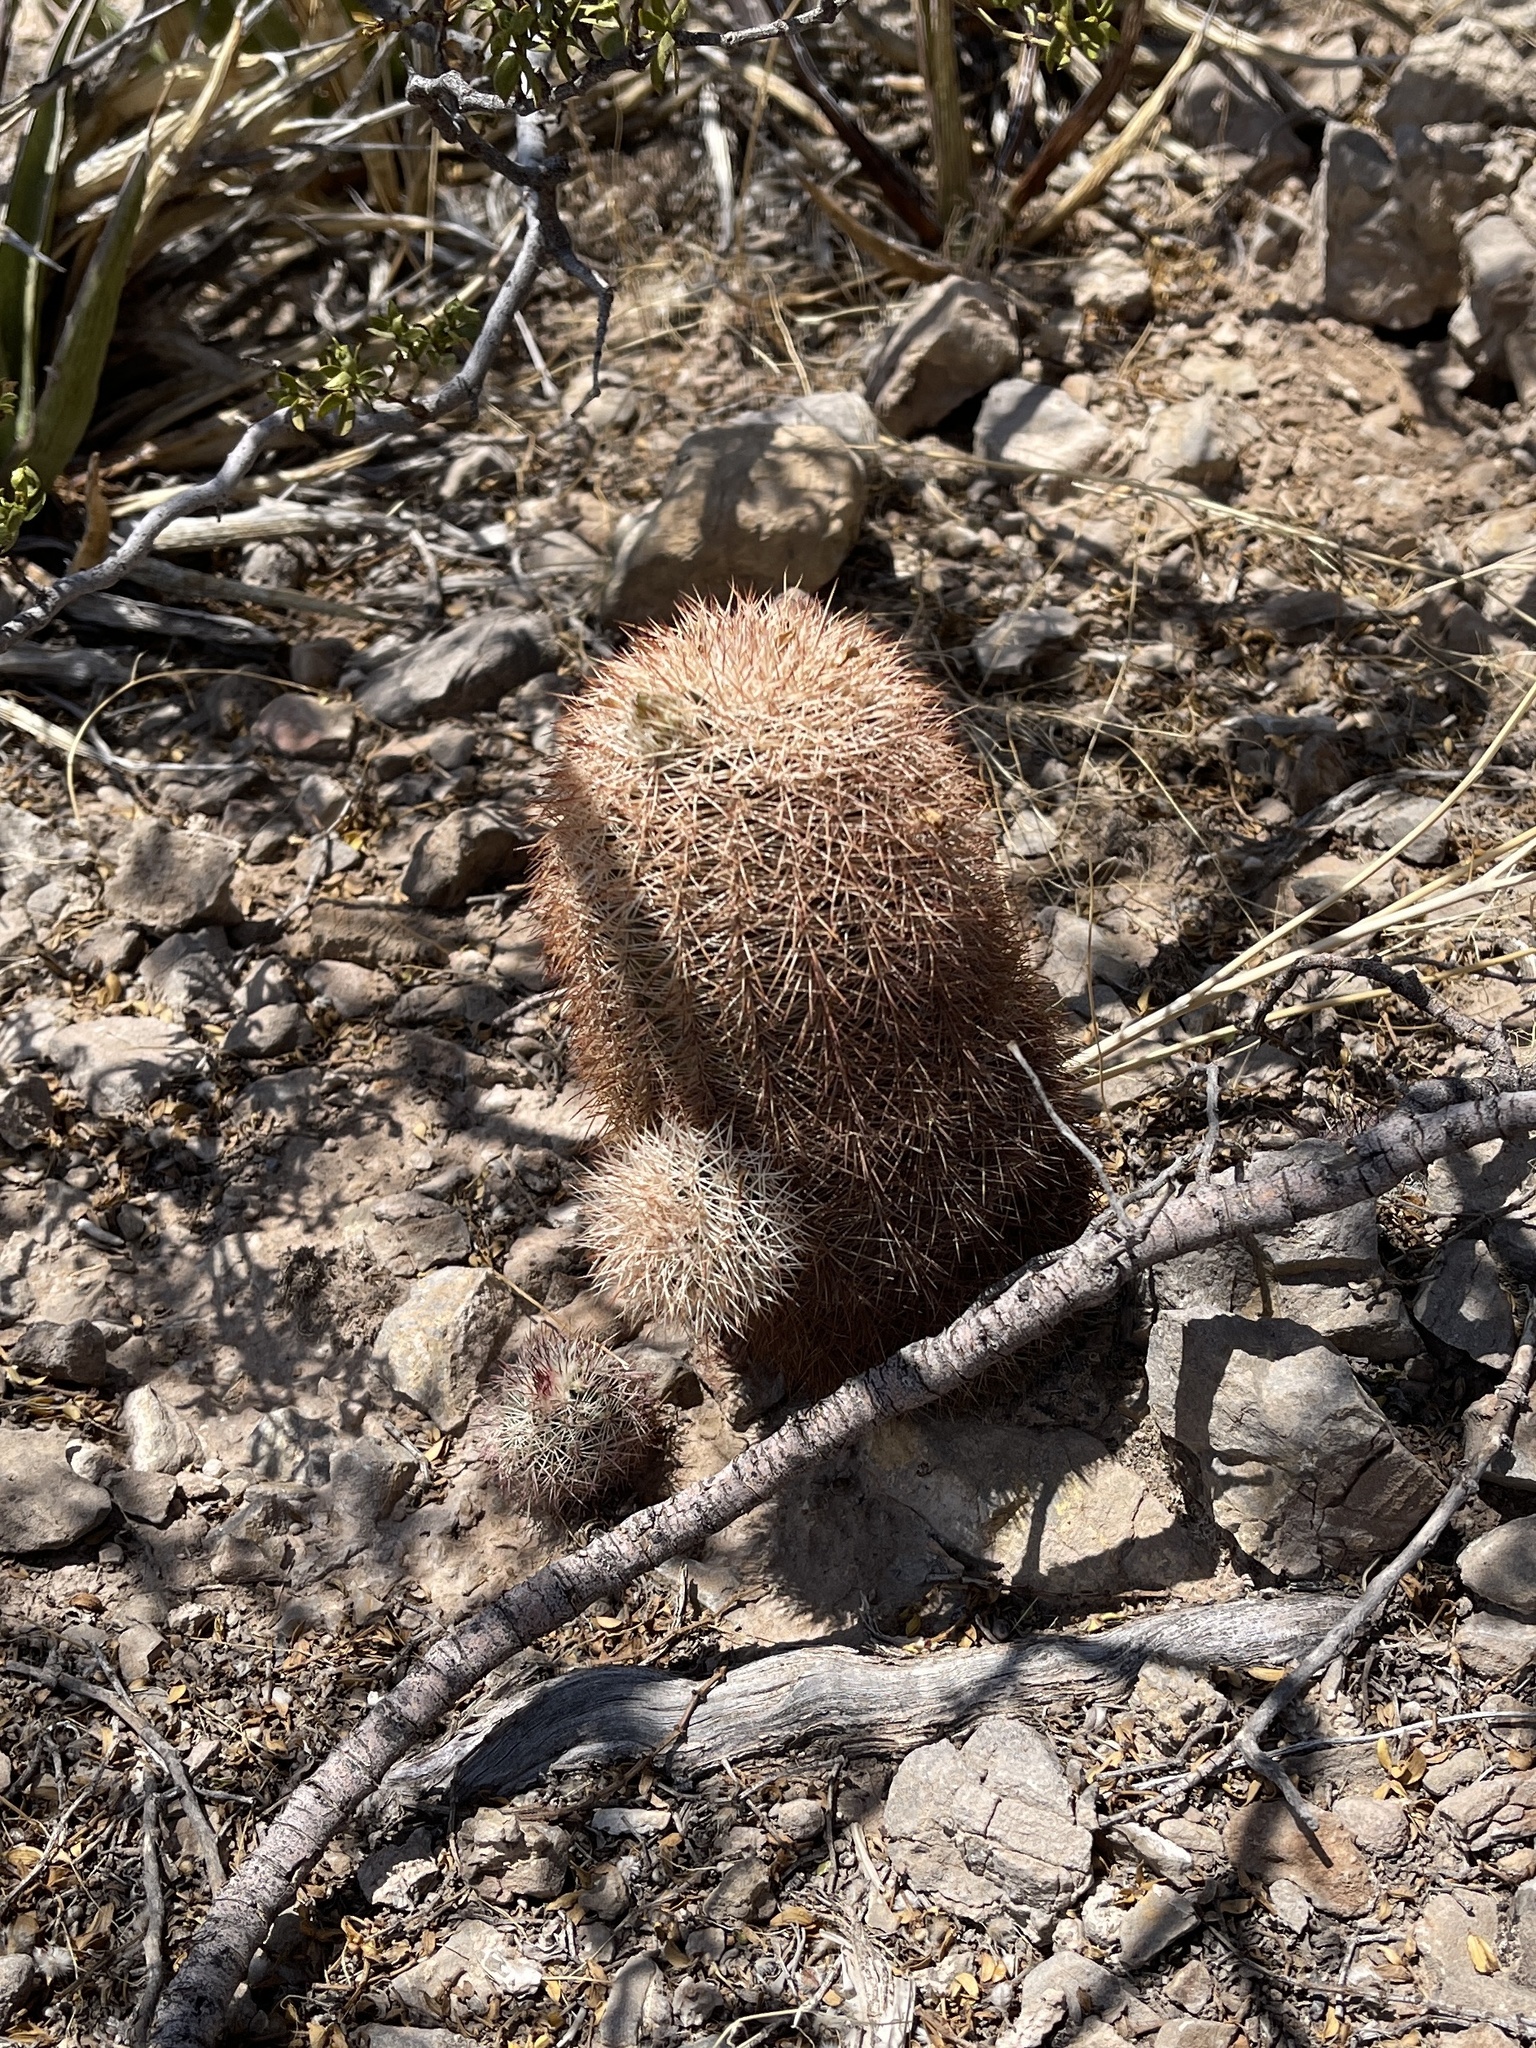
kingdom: Plantae
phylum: Tracheophyta
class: Magnoliopsida
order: Caryophyllales
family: Cactaceae
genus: Echinocereus
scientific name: Echinocereus dasyacanthus
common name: Spiny hedgehog cactus
